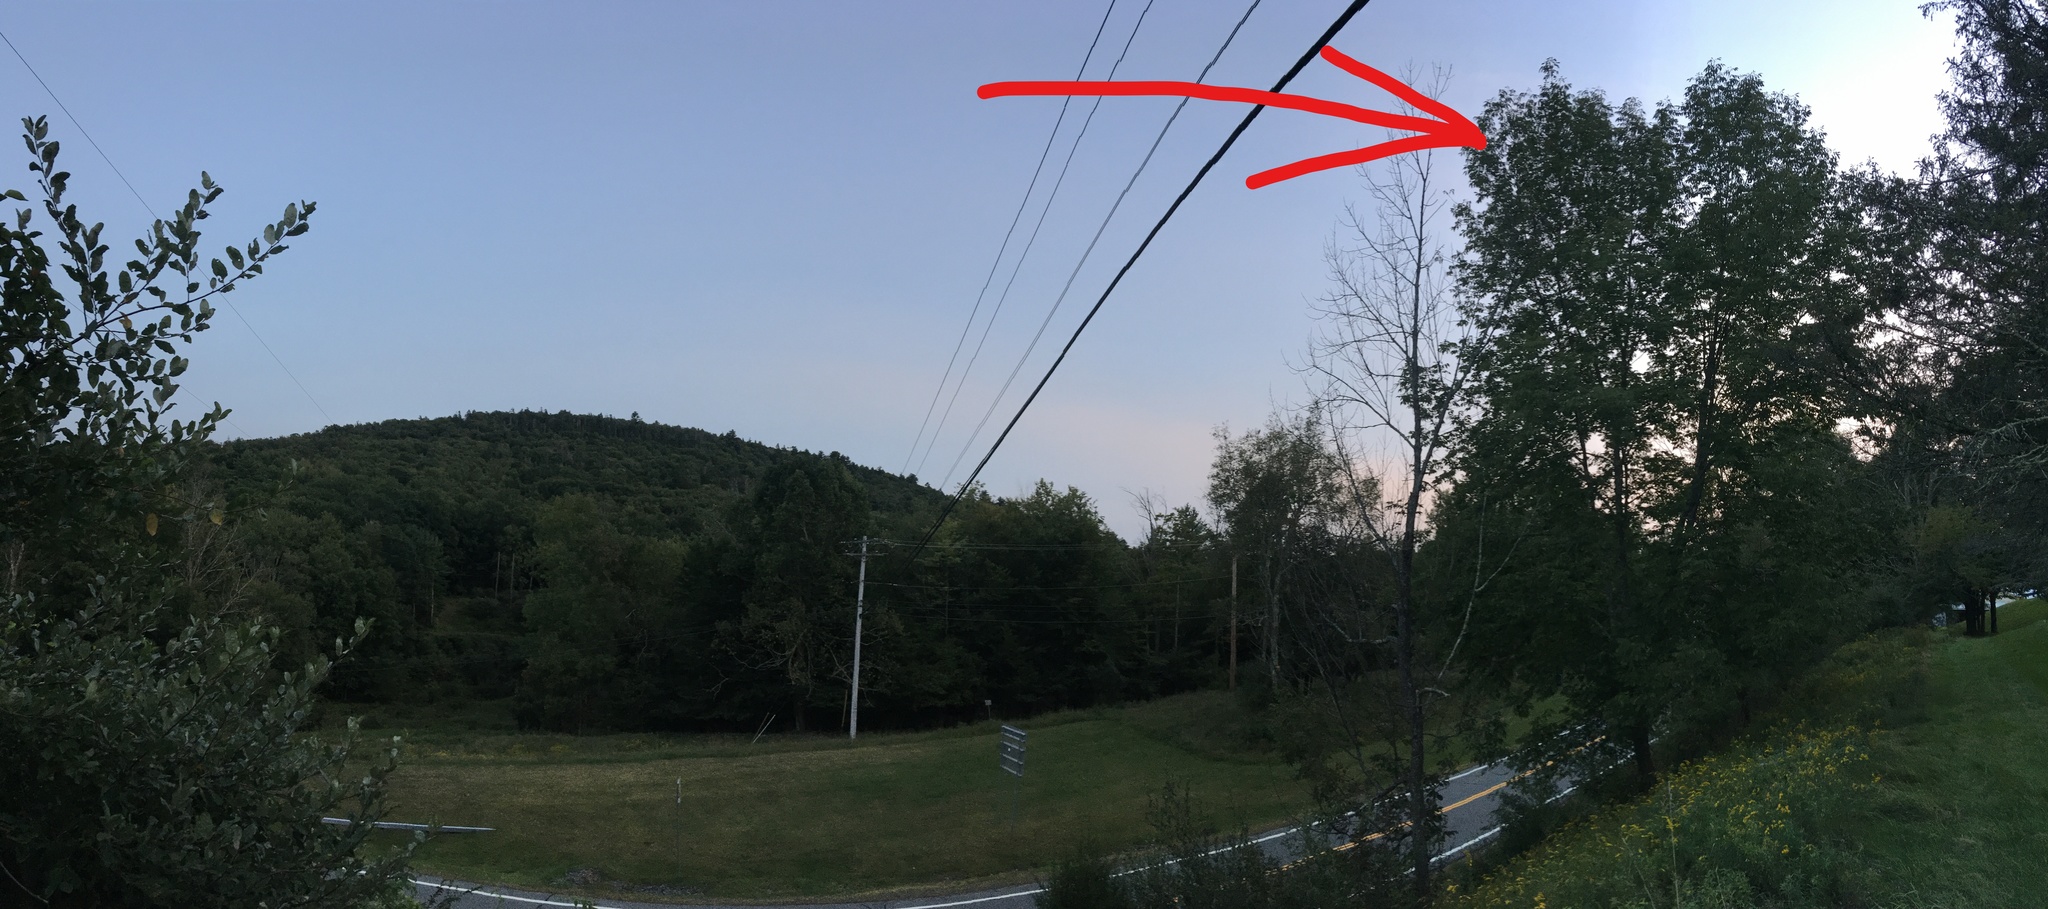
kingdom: Plantae
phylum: Tracheophyta
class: Magnoliopsida
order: Lamiales
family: Oleaceae
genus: Fraxinus
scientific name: Fraxinus americana
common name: White ash
